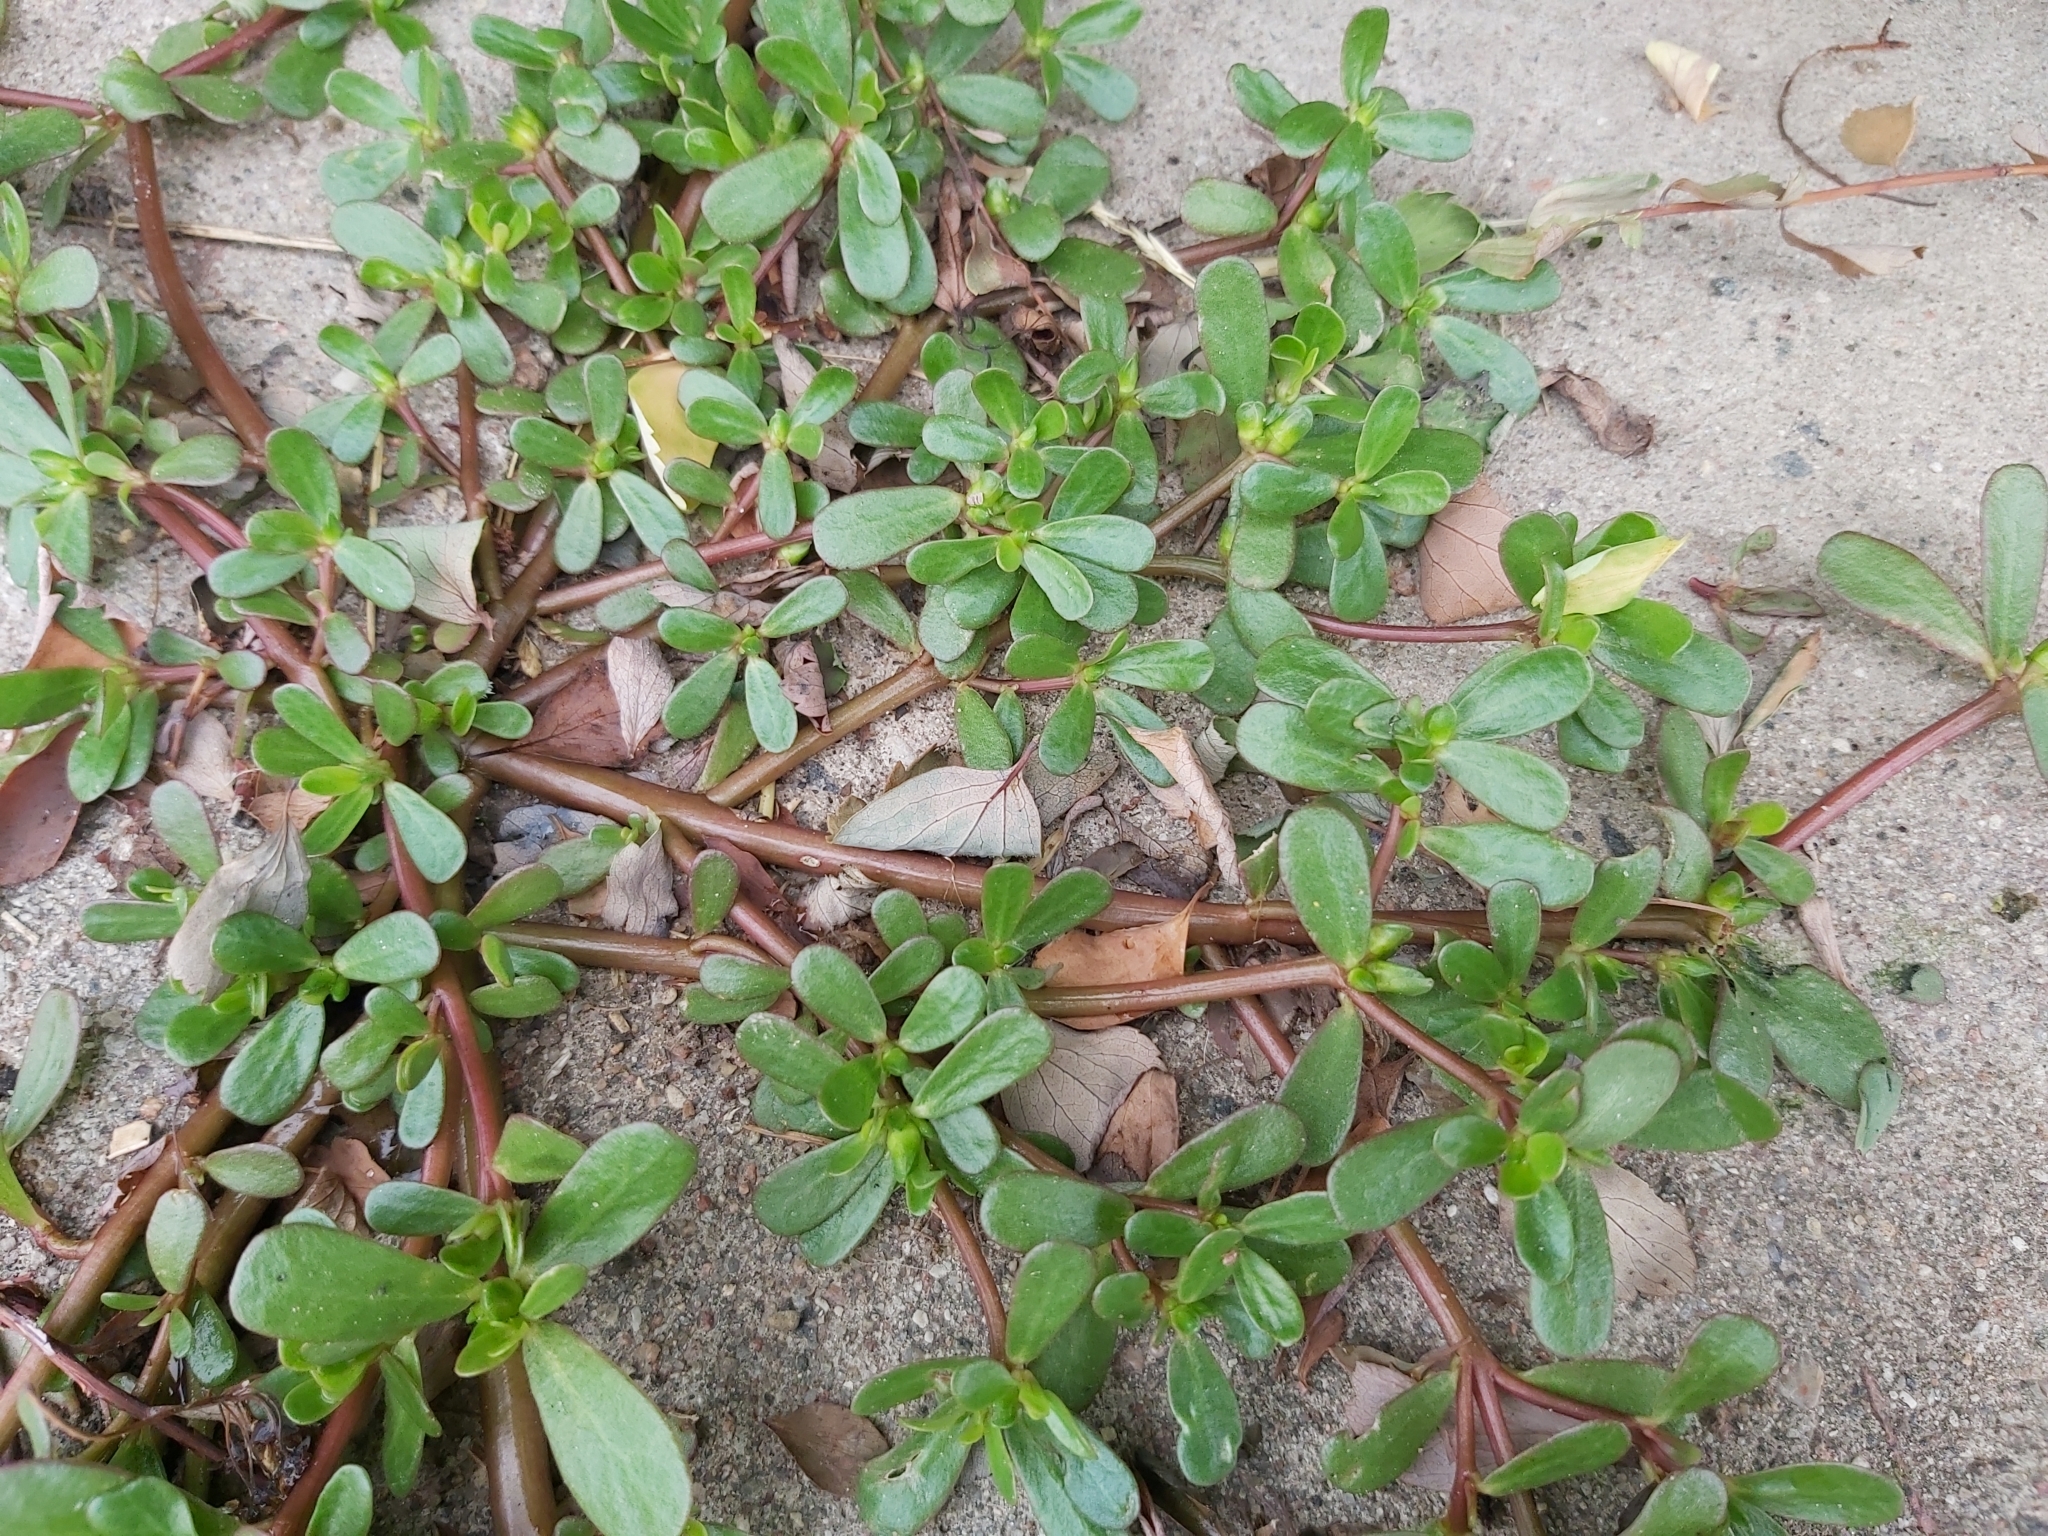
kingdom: Plantae
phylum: Tracheophyta
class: Magnoliopsida
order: Caryophyllales
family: Portulacaceae
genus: Portulaca
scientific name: Portulaca oleracea
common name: Common purslane
